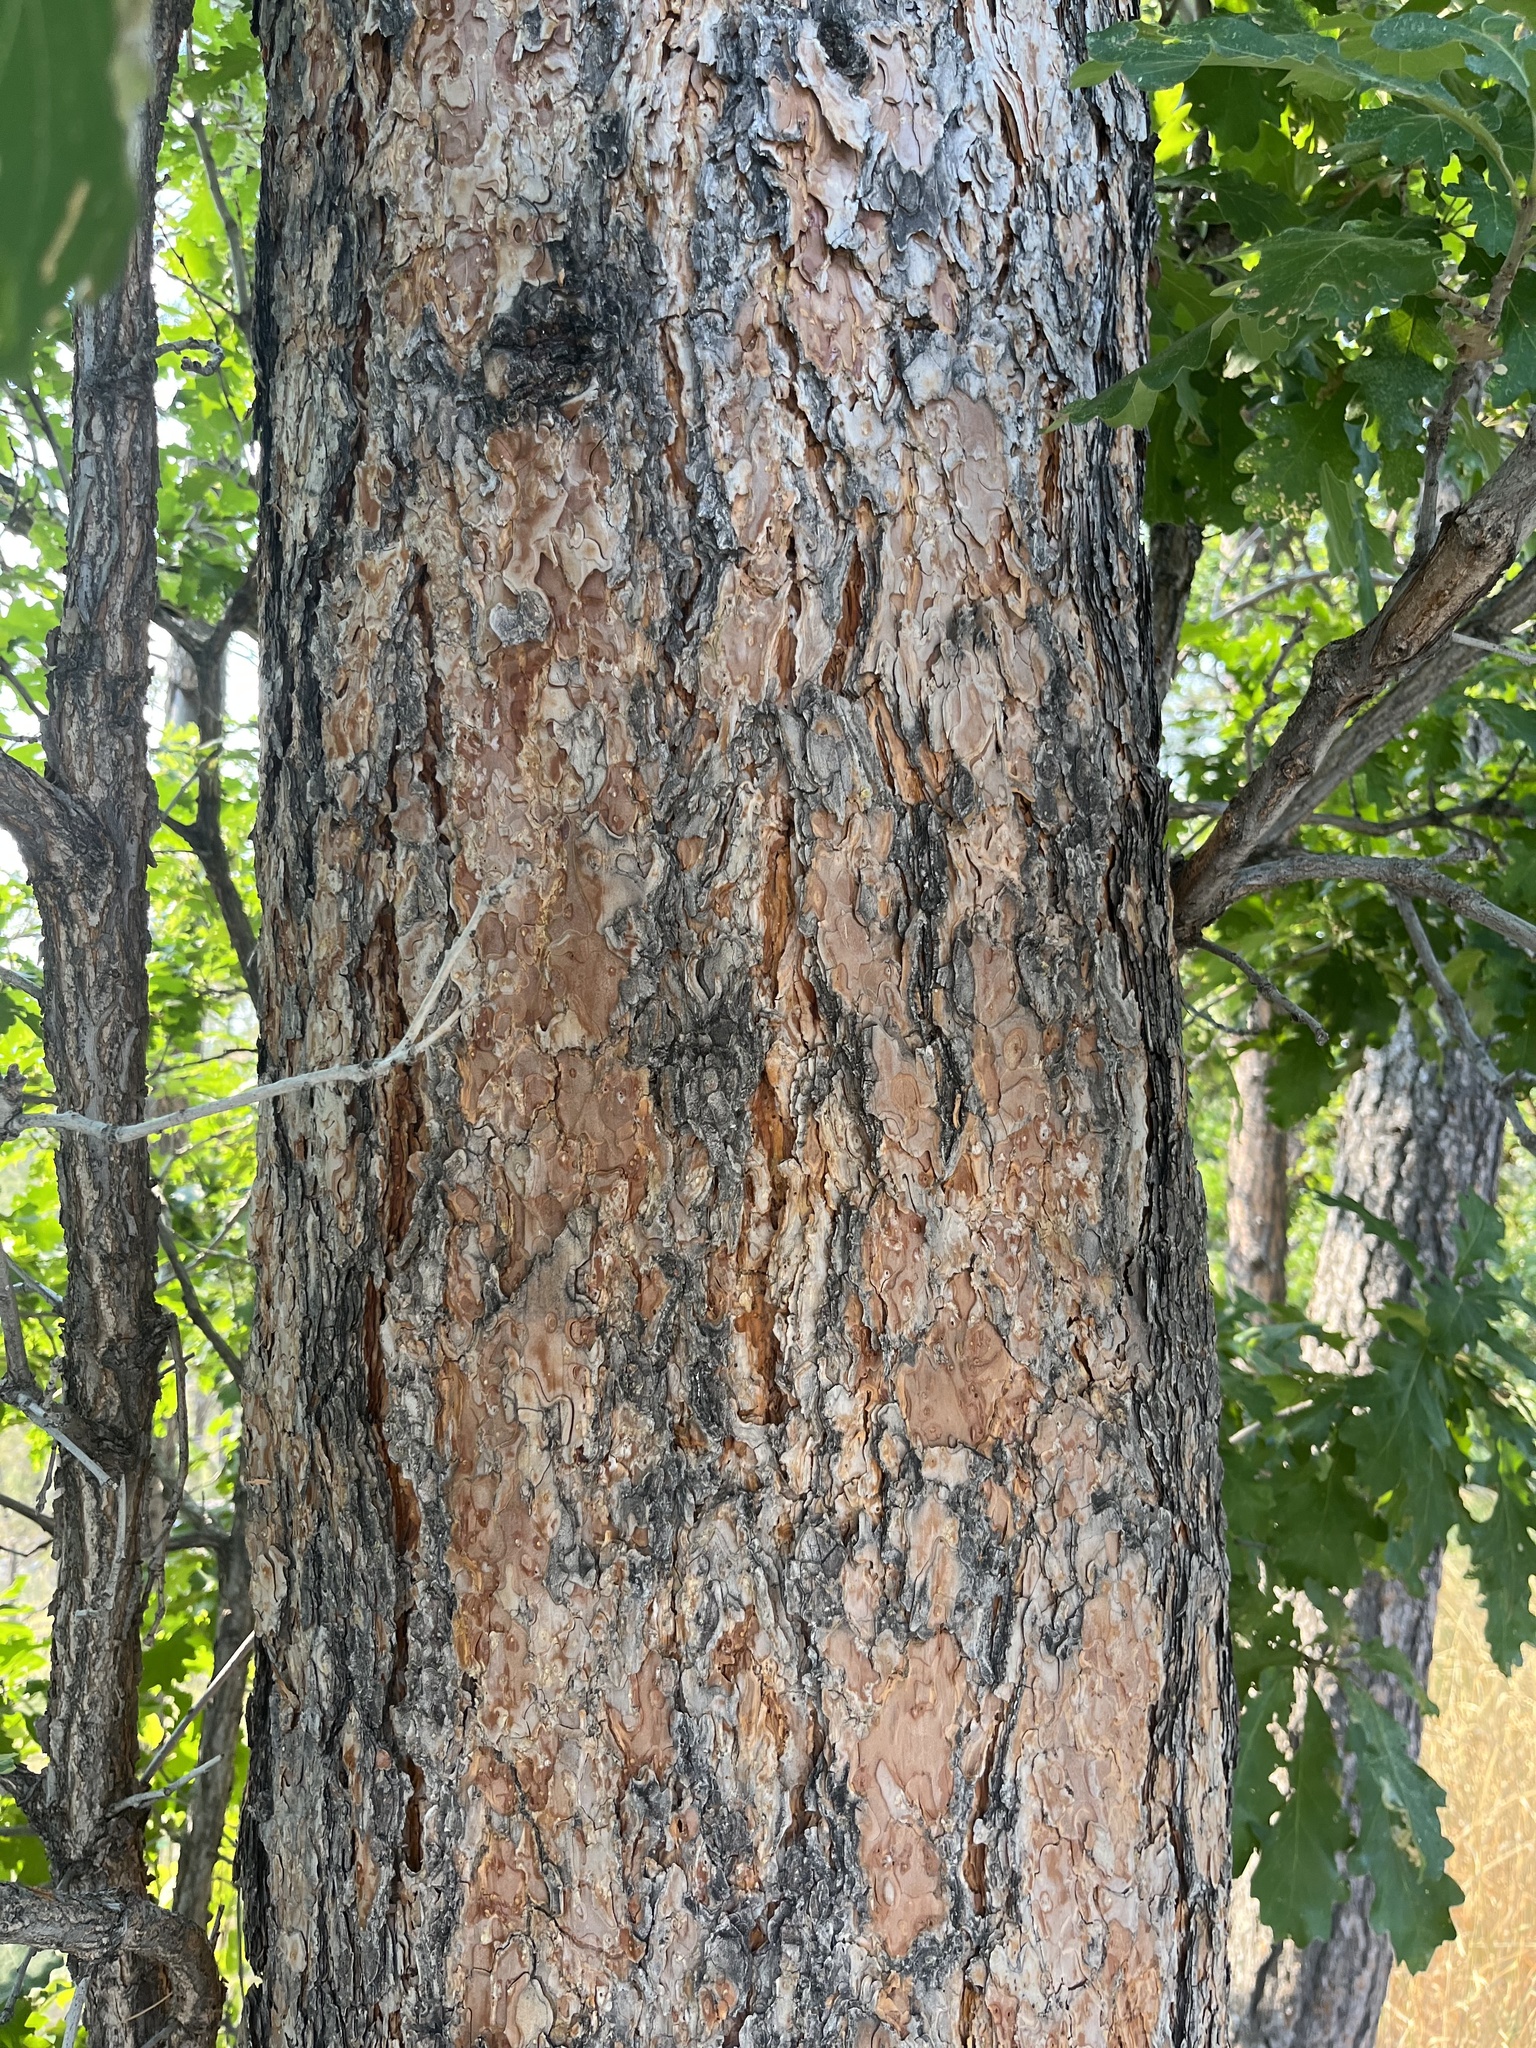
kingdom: Plantae
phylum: Tracheophyta
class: Magnoliopsida
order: Fagales
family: Fagaceae
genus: Quercus
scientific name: Quercus macrocarpa
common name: Bur oak
